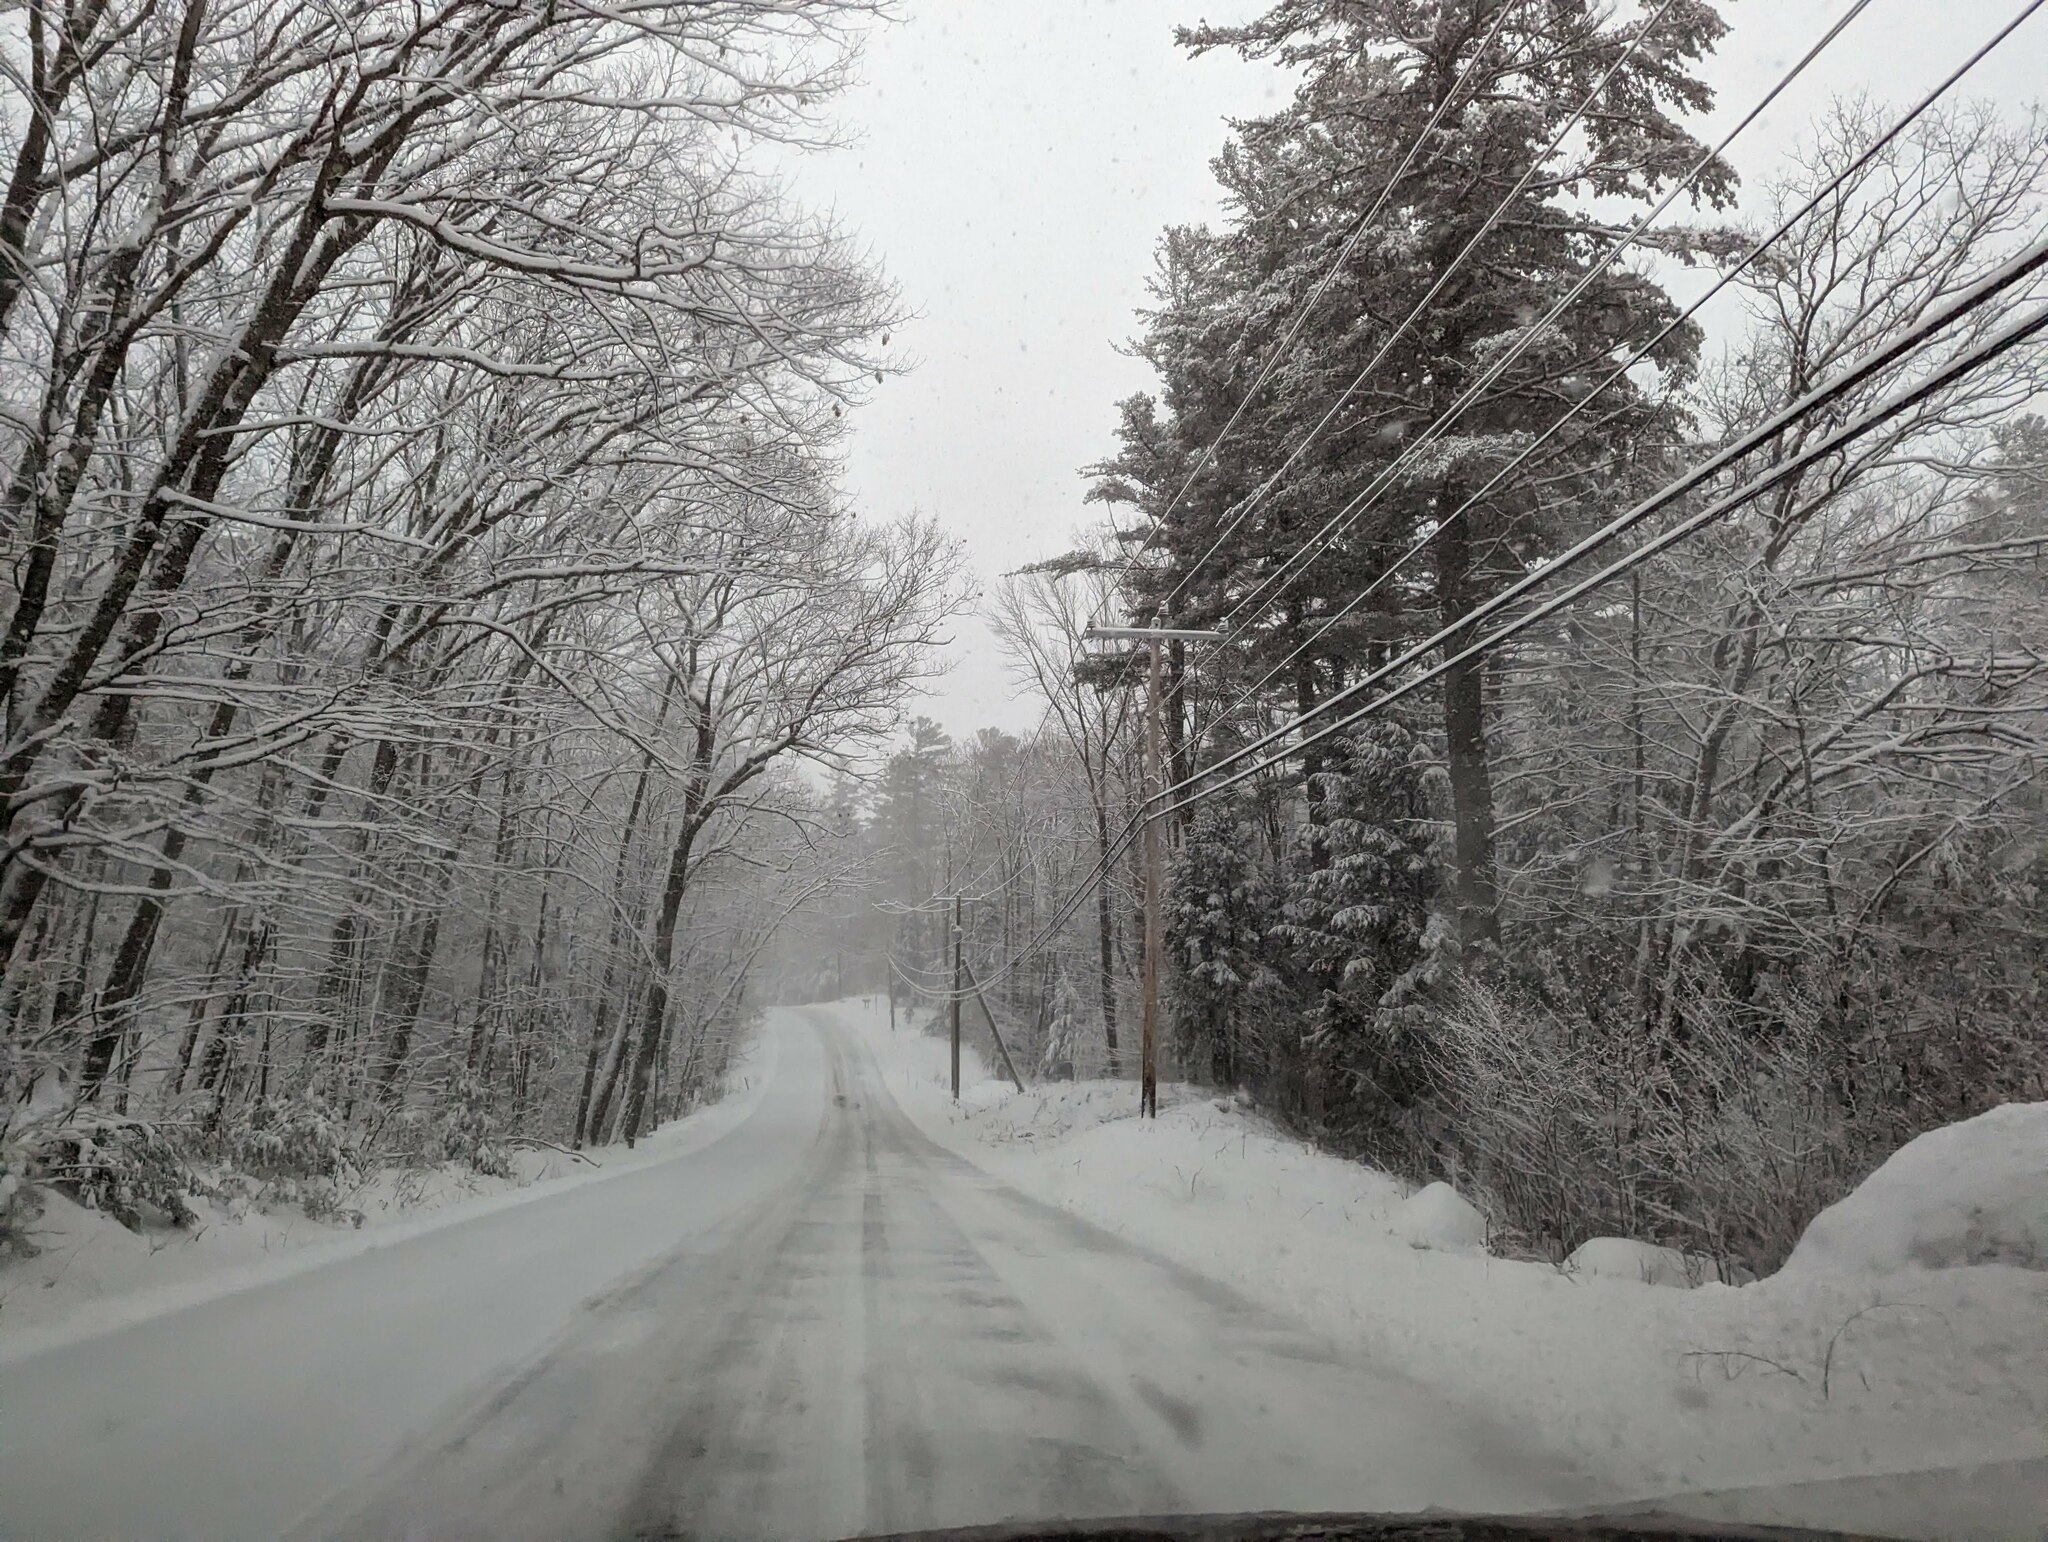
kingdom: Plantae
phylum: Tracheophyta
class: Pinopsida
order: Pinales
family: Pinaceae
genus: Pinus
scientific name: Pinus strobus
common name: Weymouth pine
